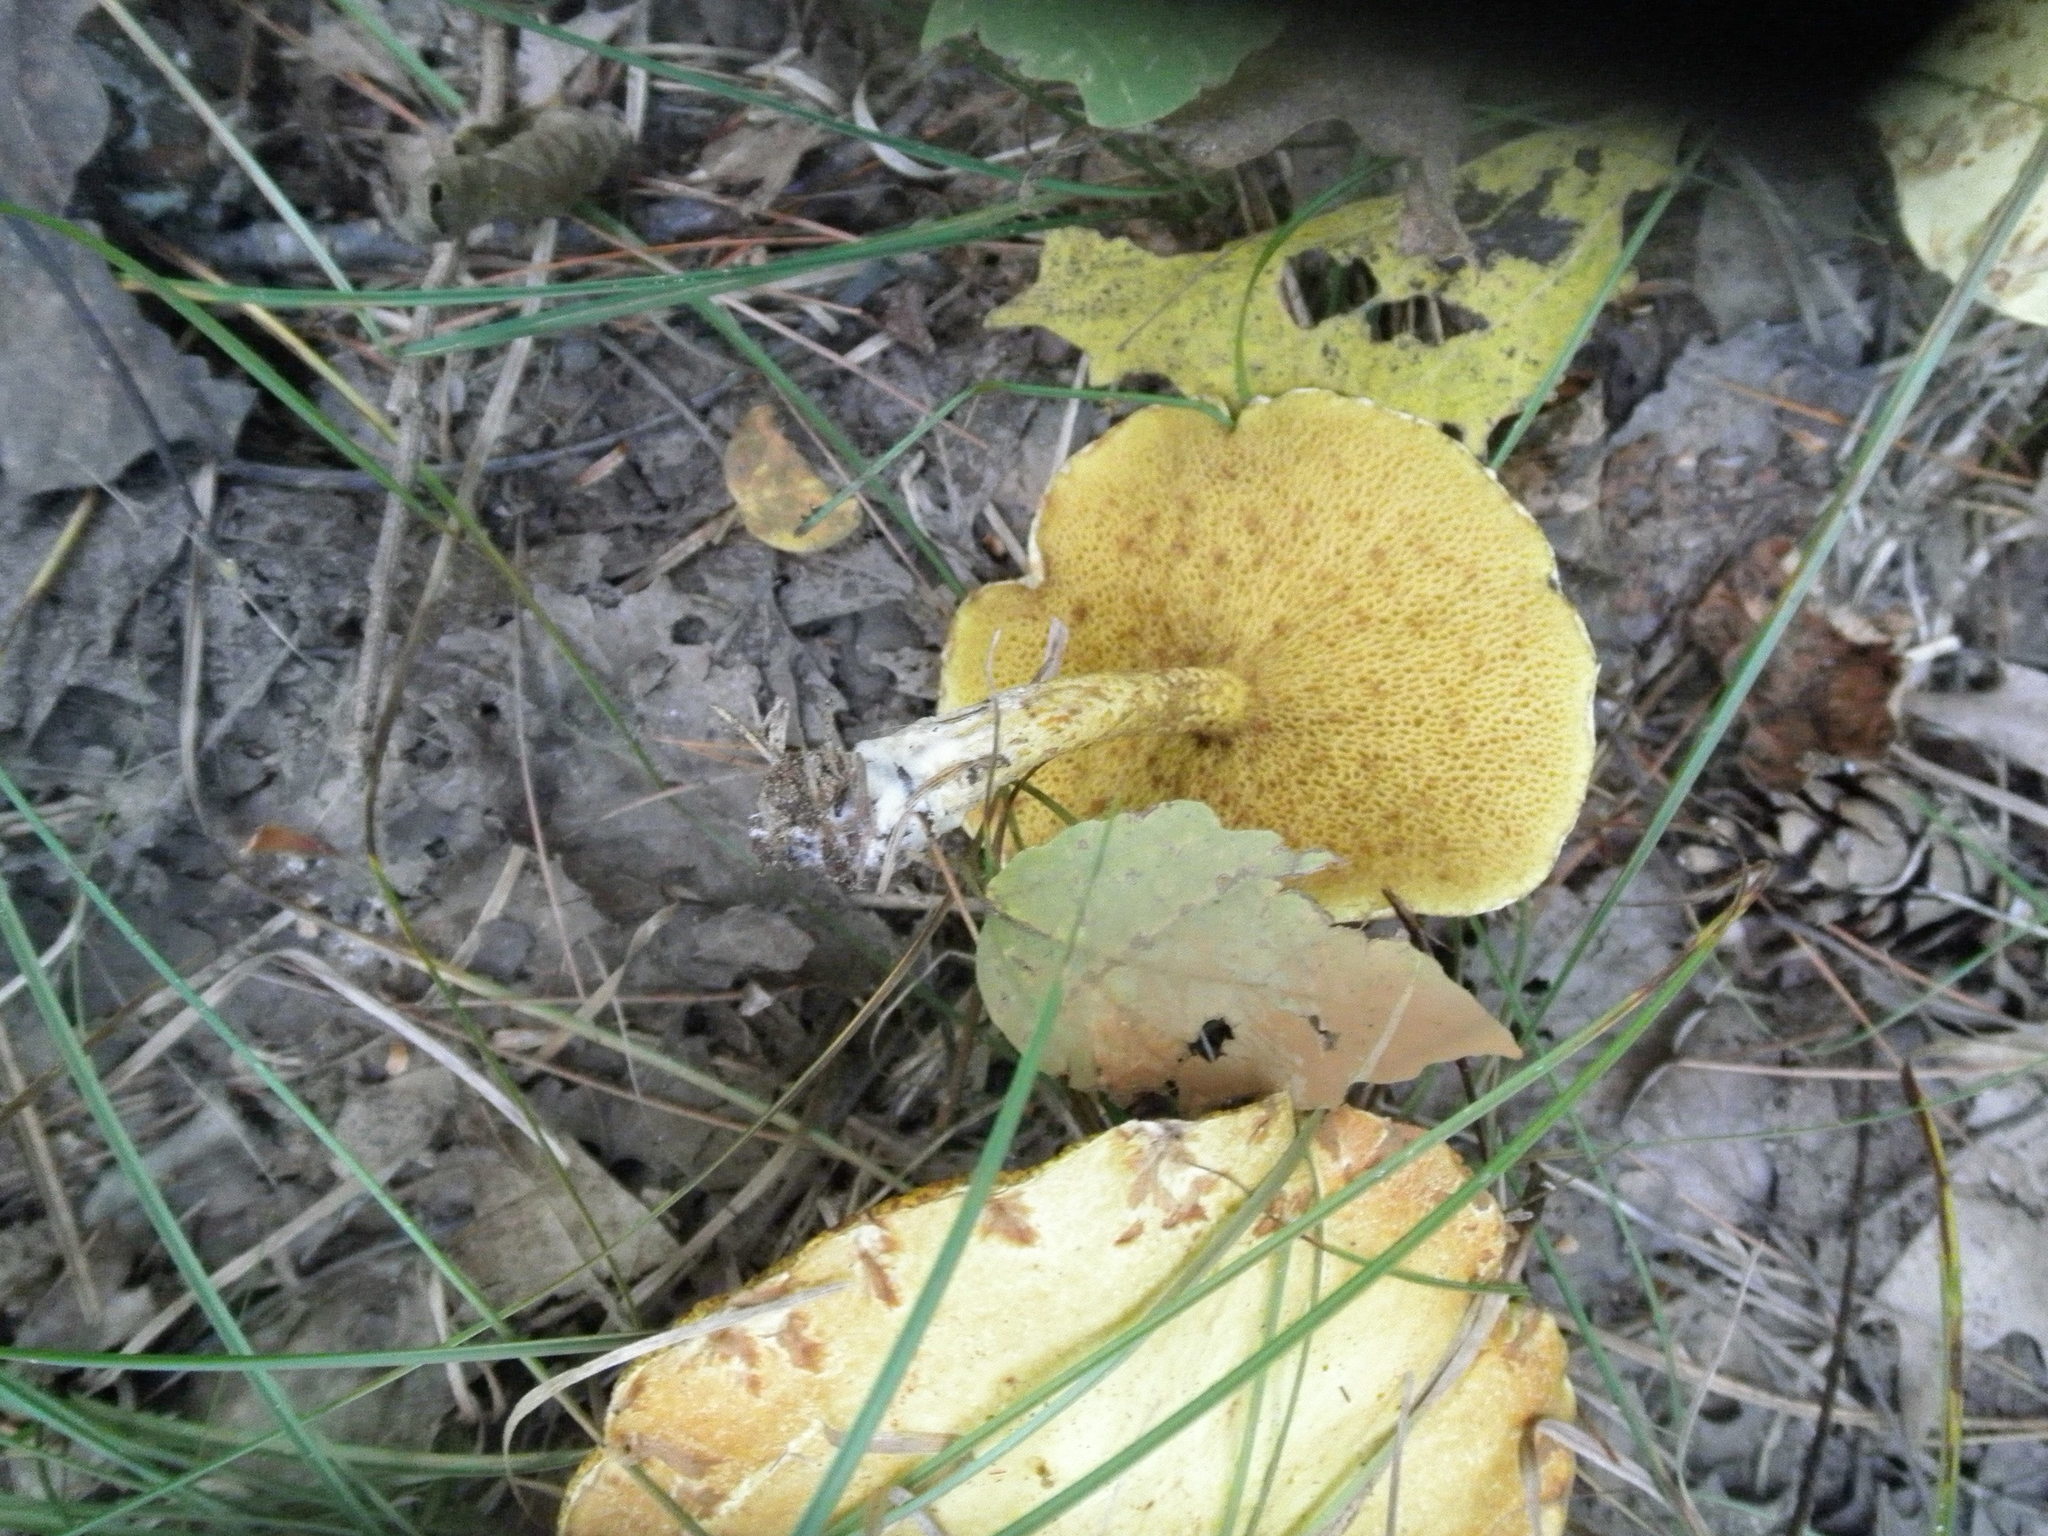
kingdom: Fungi
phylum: Basidiomycota
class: Agaricomycetes
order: Boletales
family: Suillaceae
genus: Suillus
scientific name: Suillus americanus
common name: Chicken fat mushroom
